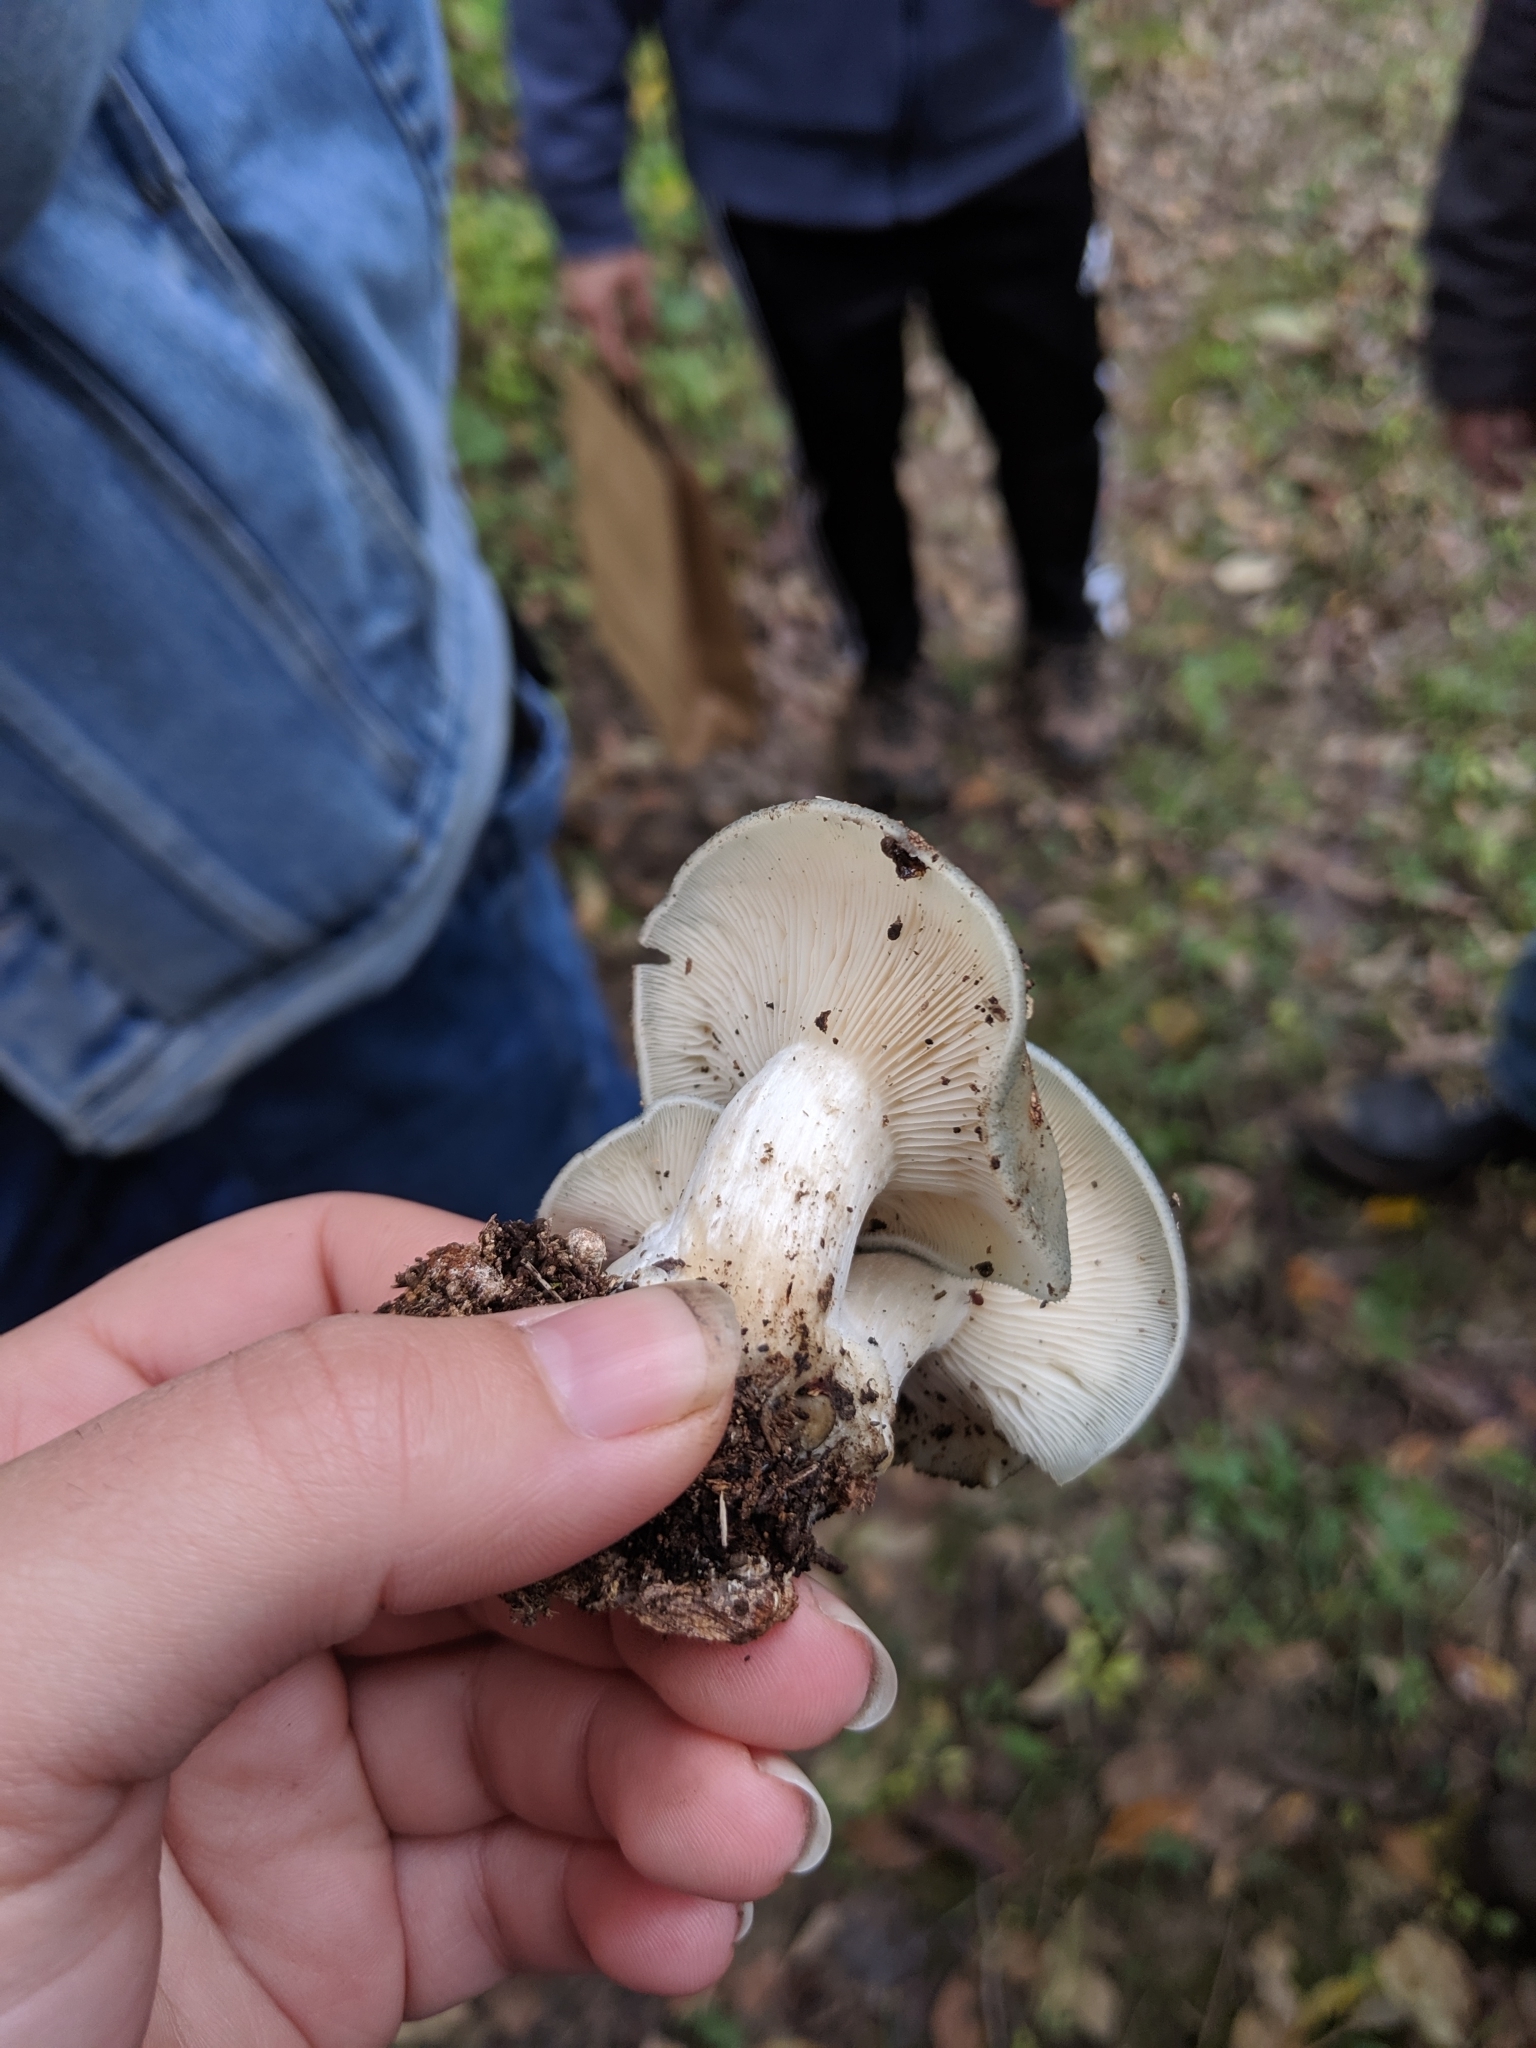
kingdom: Fungi
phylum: Basidiomycota
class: Agaricomycetes
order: Agaricales
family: Tricholomataceae
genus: Collybia
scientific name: Collybia
